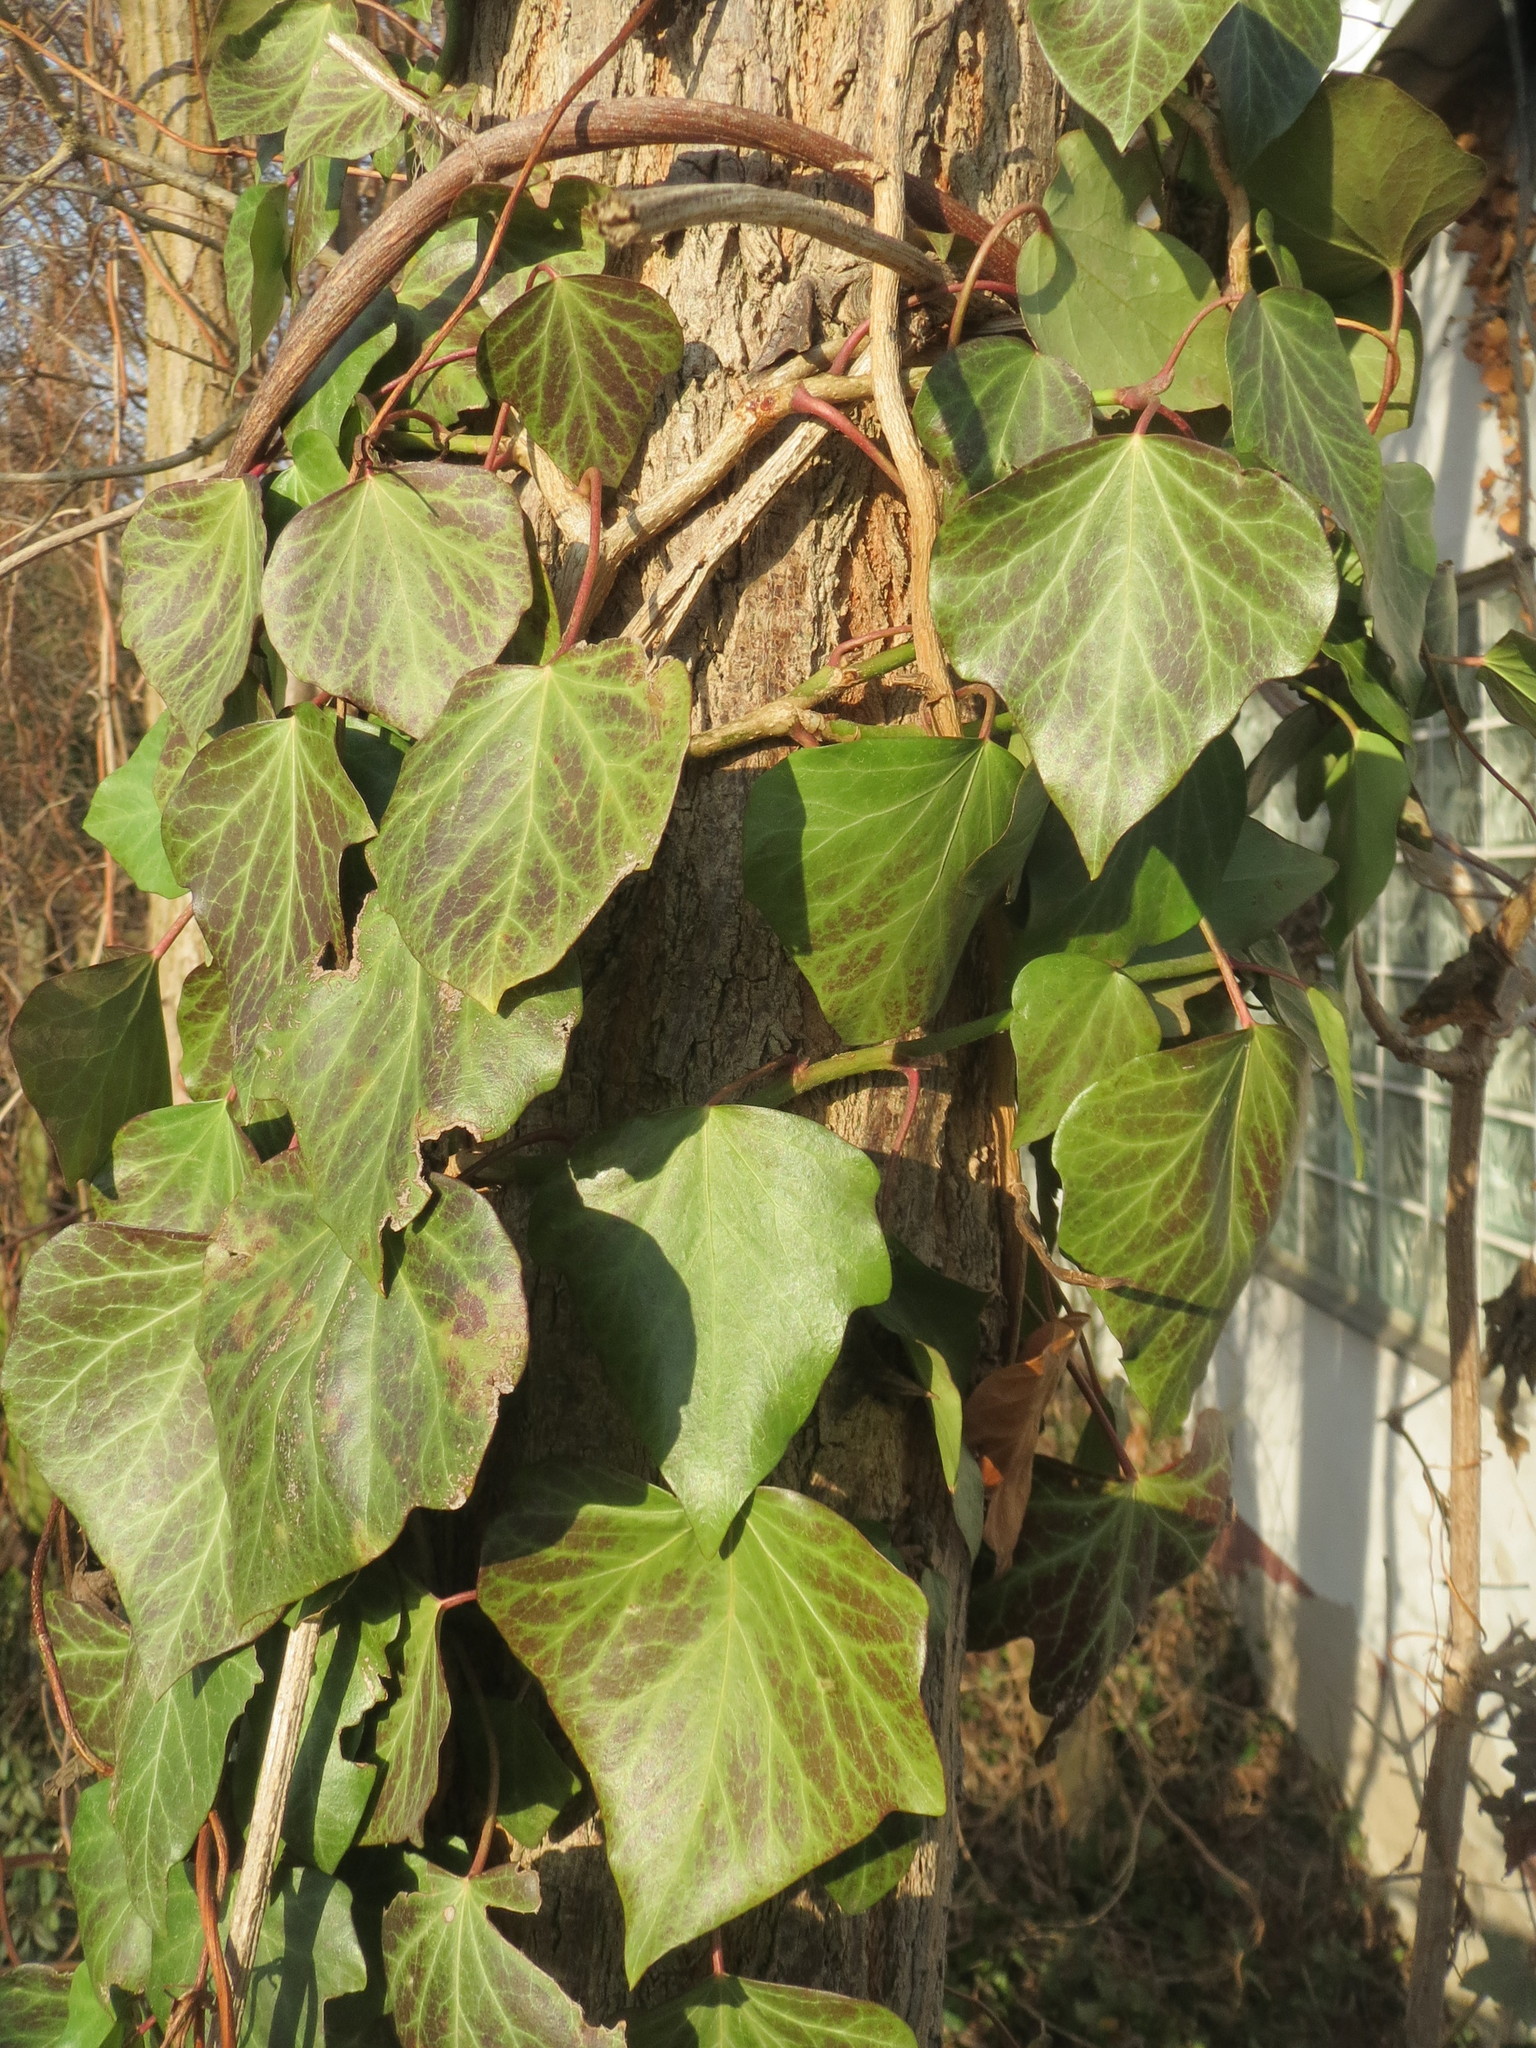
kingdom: Plantae
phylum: Tracheophyta
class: Magnoliopsida
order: Apiales
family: Araliaceae
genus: Hedera
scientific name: Hedera helix
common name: Ivy
